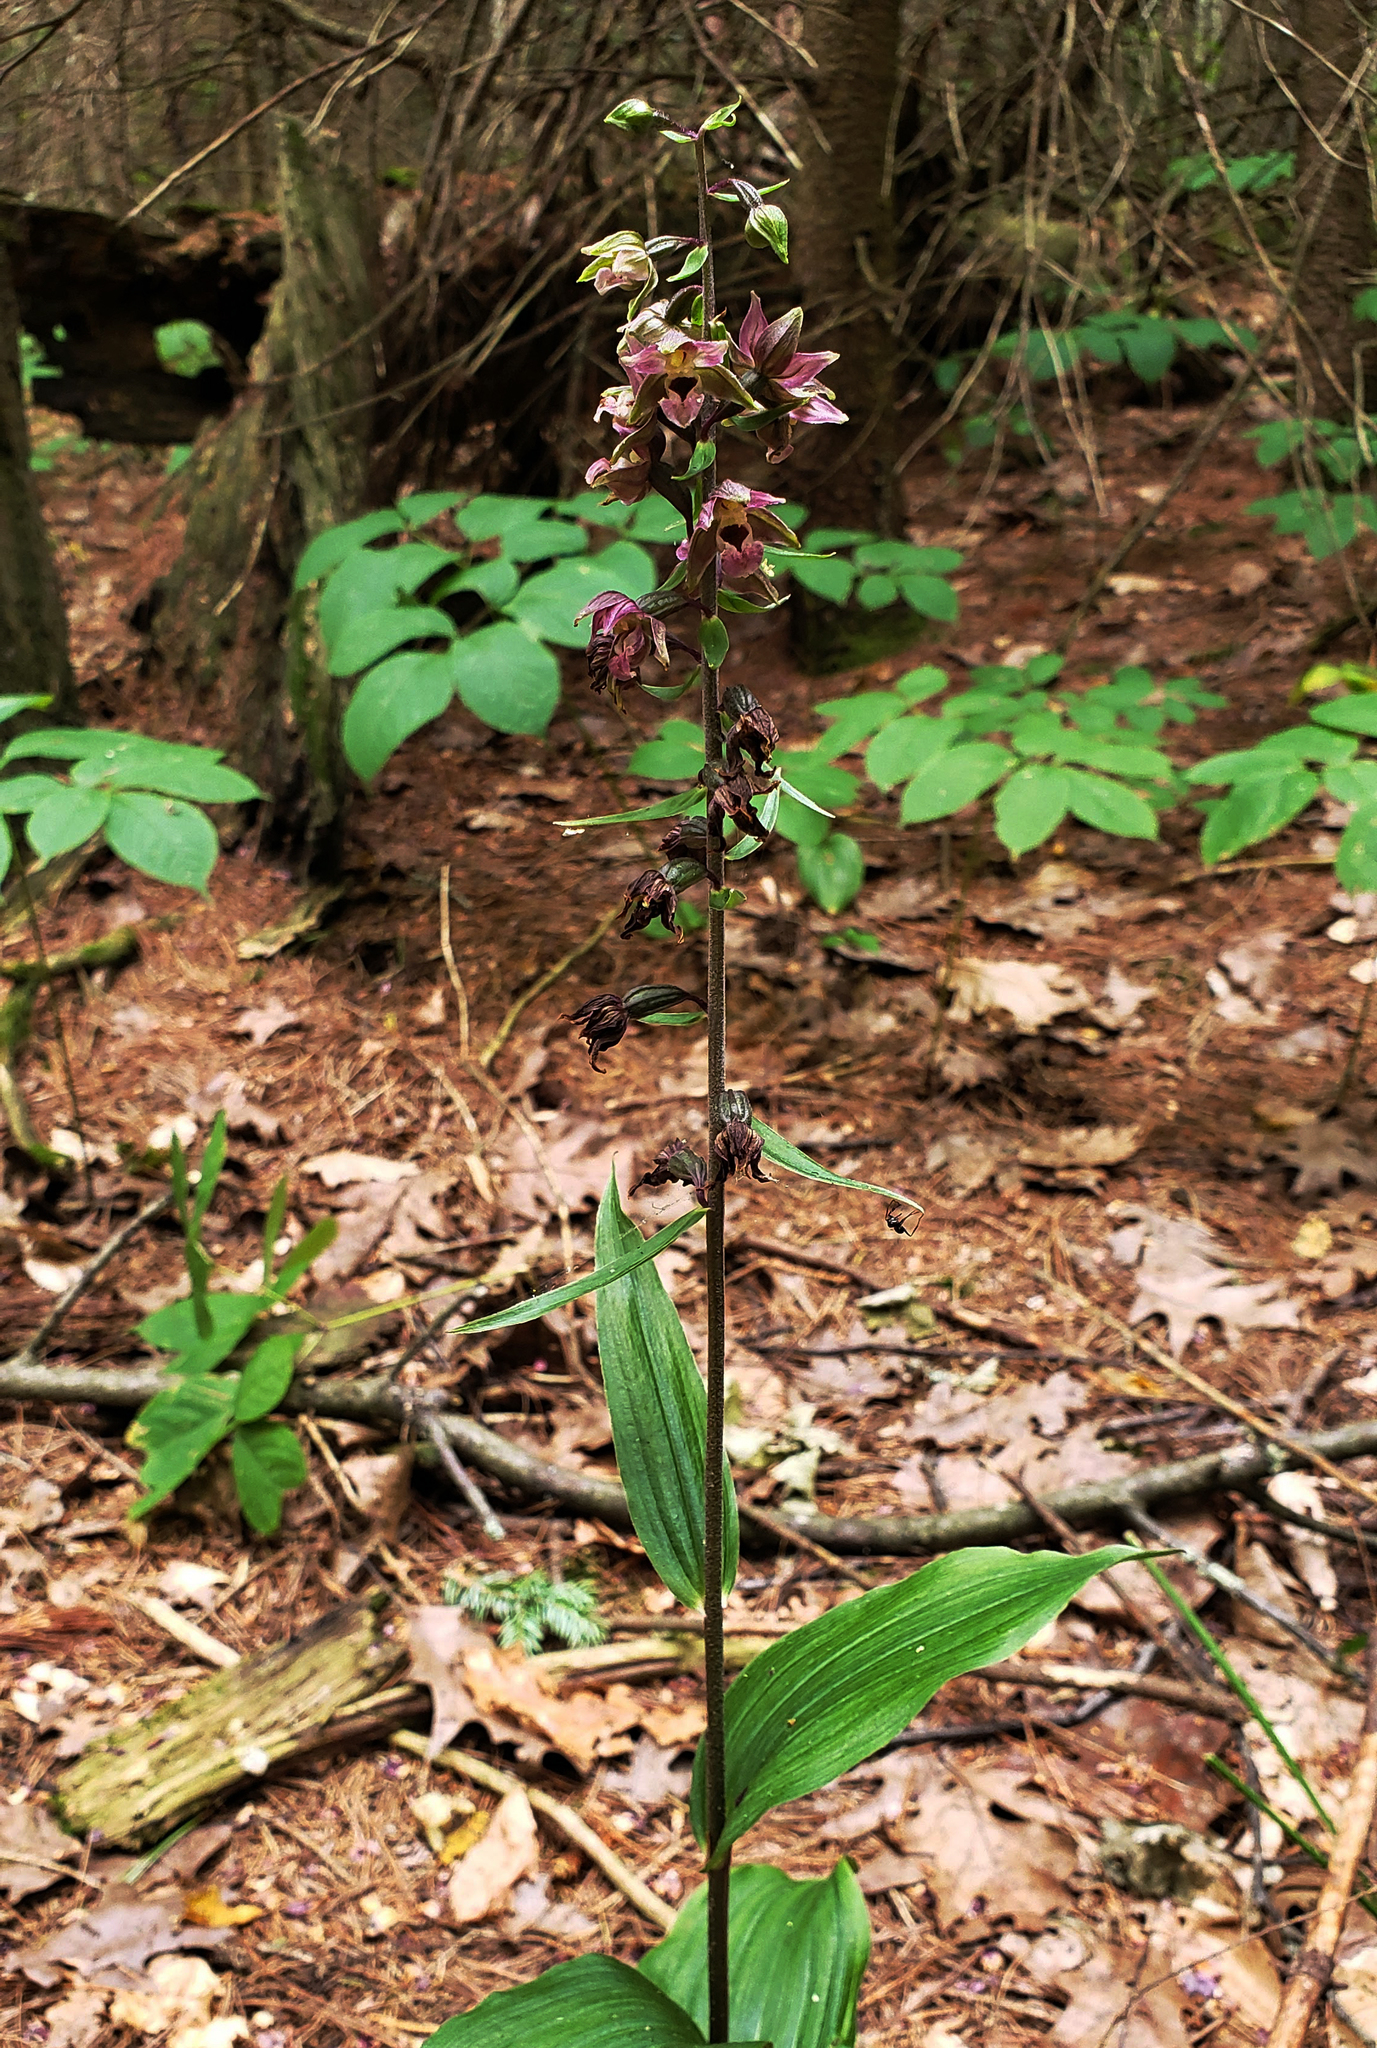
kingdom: Plantae
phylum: Tracheophyta
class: Liliopsida
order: Asparagales
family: Orchidaceae
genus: Epipactis
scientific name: Epipactis helleborine
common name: Broad-leaved helleborine
